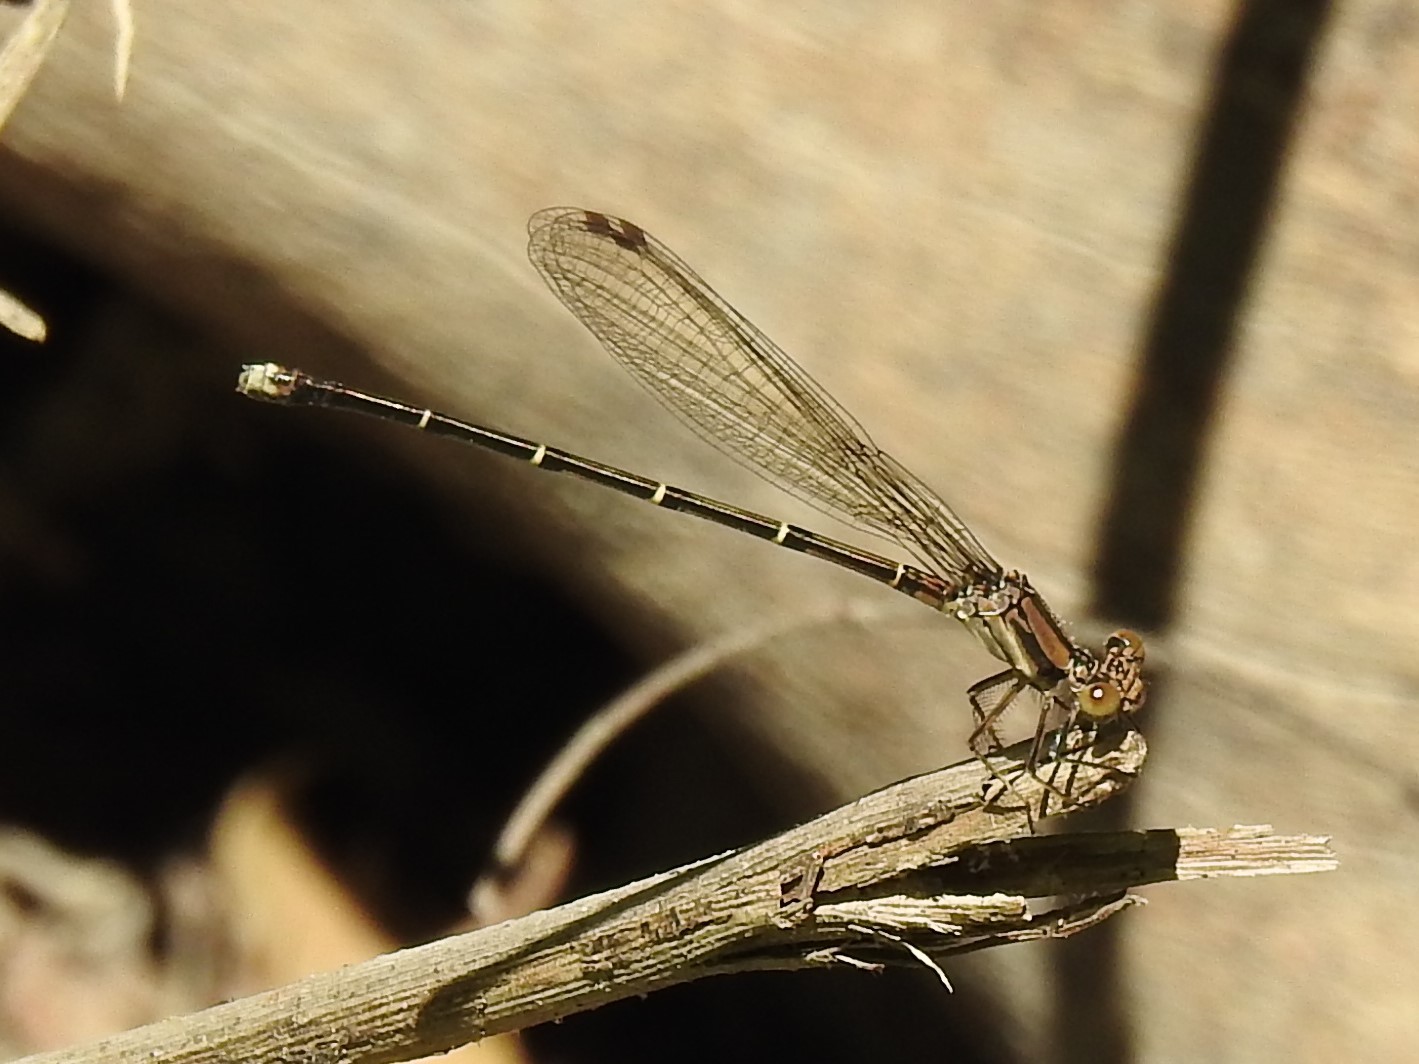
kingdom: Animalia
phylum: Arthropoda
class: Insecta
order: Odonata
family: Coenagrionidae
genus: Argia
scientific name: Argia tibialis
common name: Blue-tipped dancer
